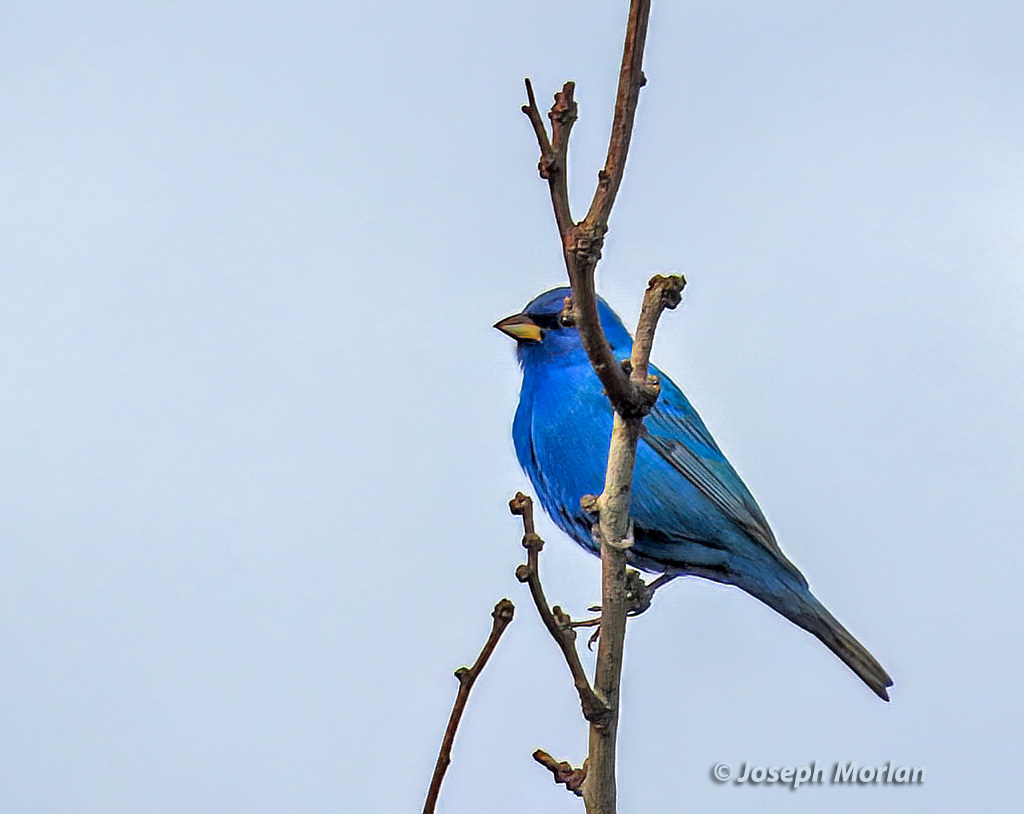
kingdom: Animalia
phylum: Chordata
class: Aves
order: Passeriformes
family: Cardinalidae
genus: Passerina
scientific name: Passerina cyanea
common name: Indigo bunting
